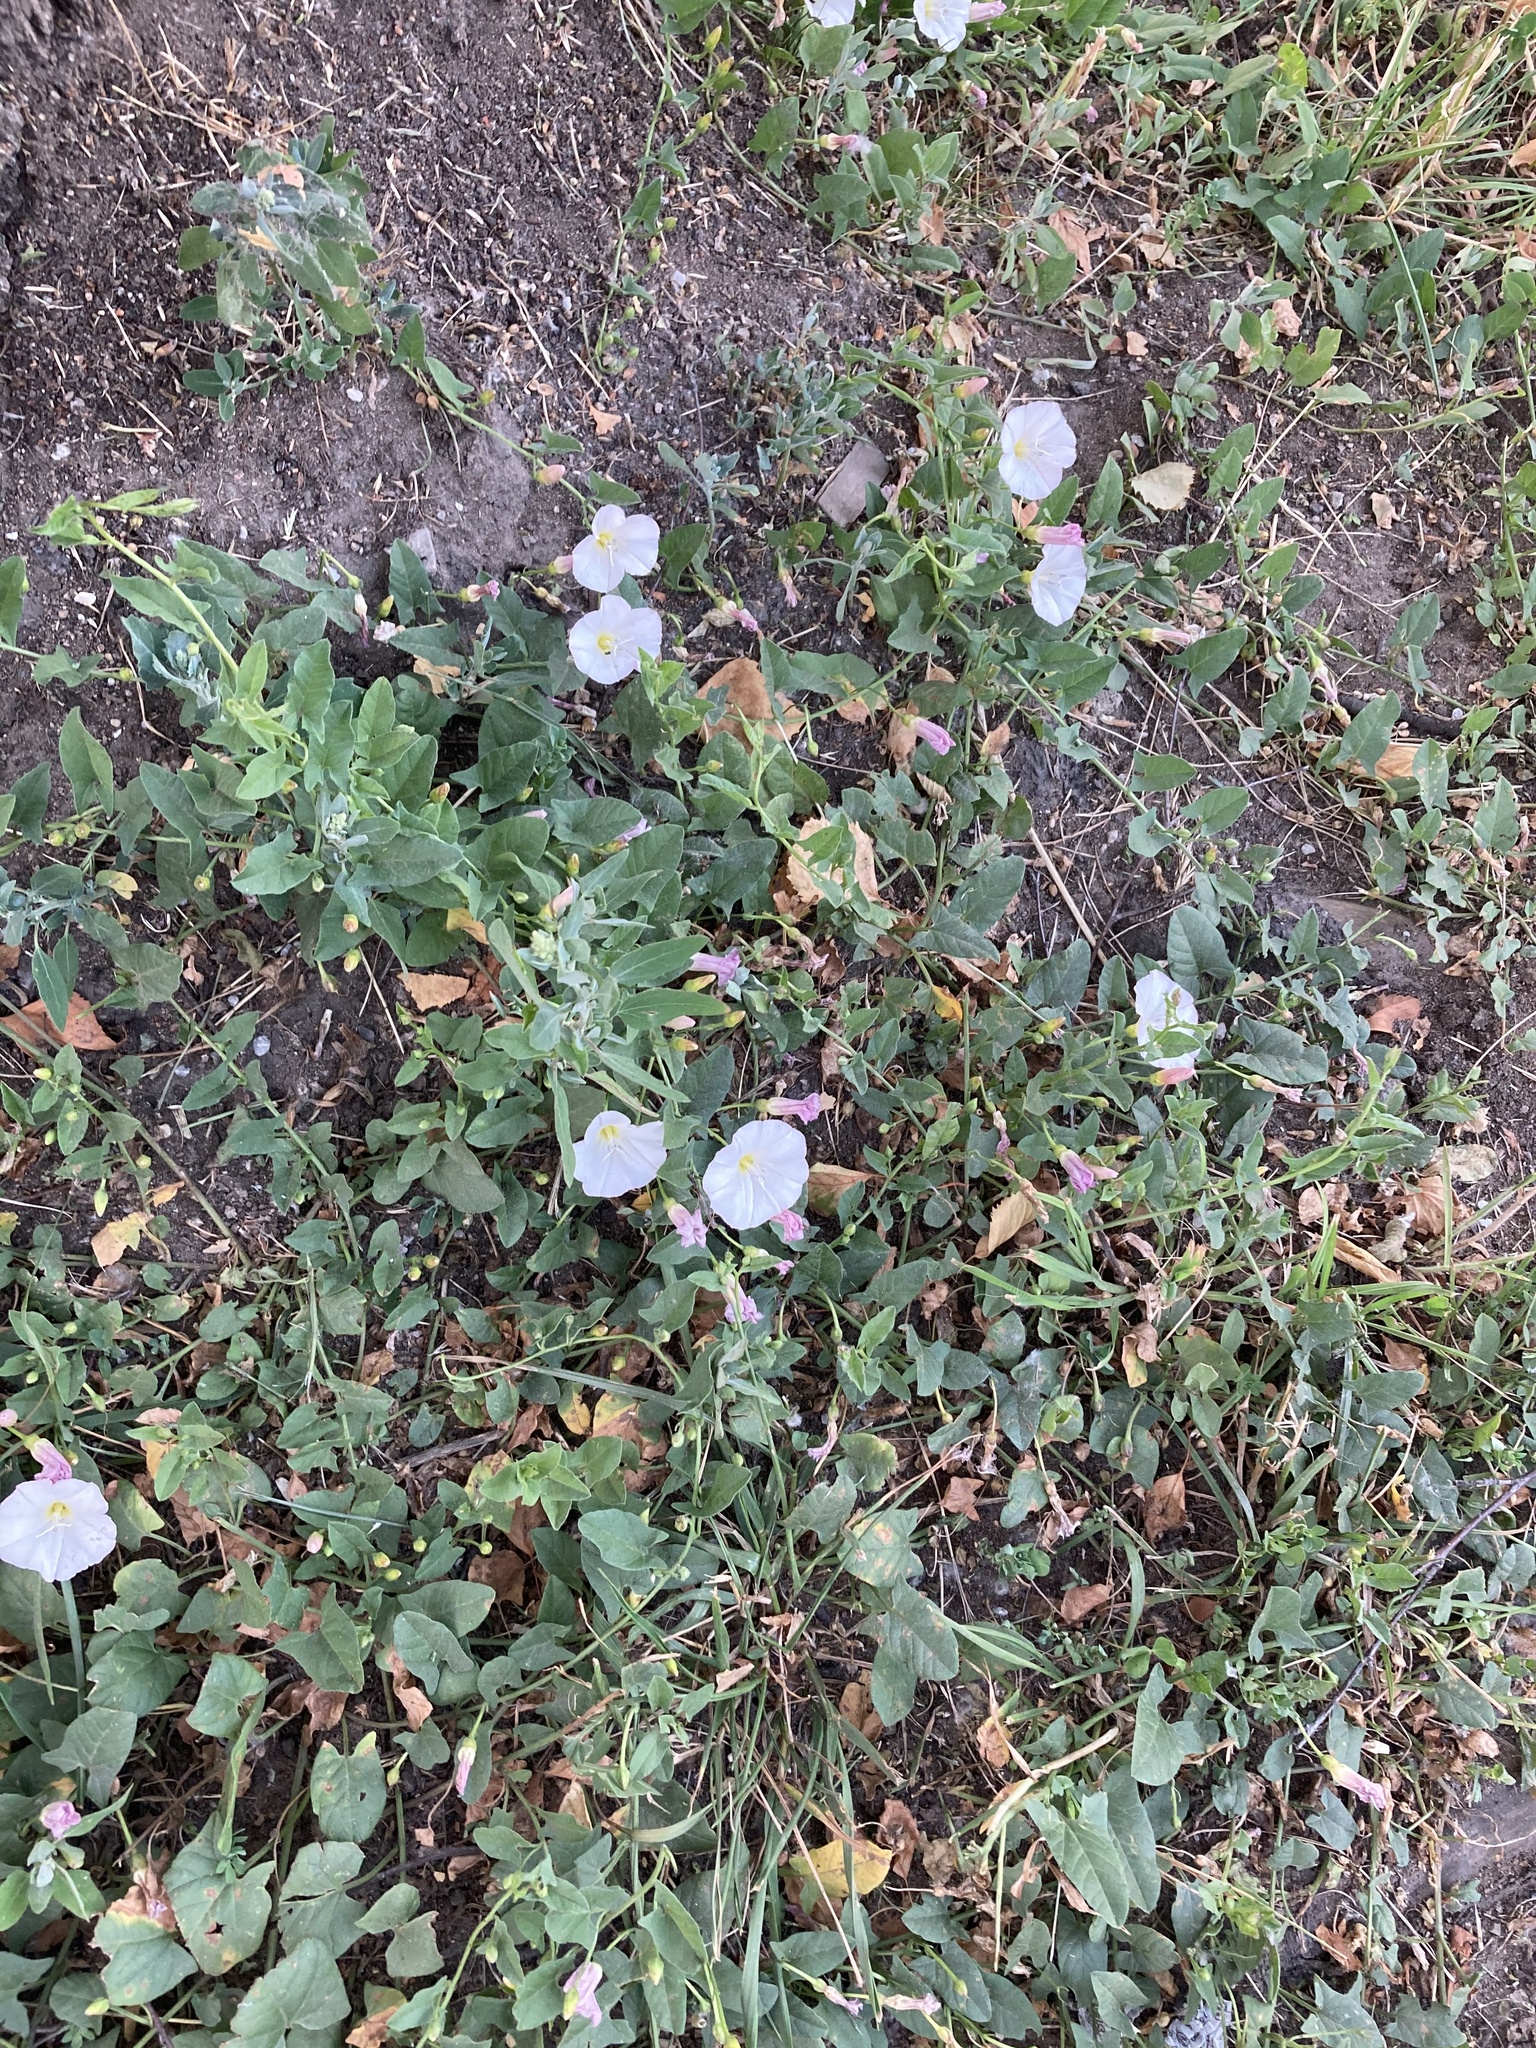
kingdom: Plantae
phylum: Tracheophyta
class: Magnoliopsida
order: Solanales
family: Convolvulaceae
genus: Convolvulus
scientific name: Convolvulus arvensis
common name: Field bindweed
